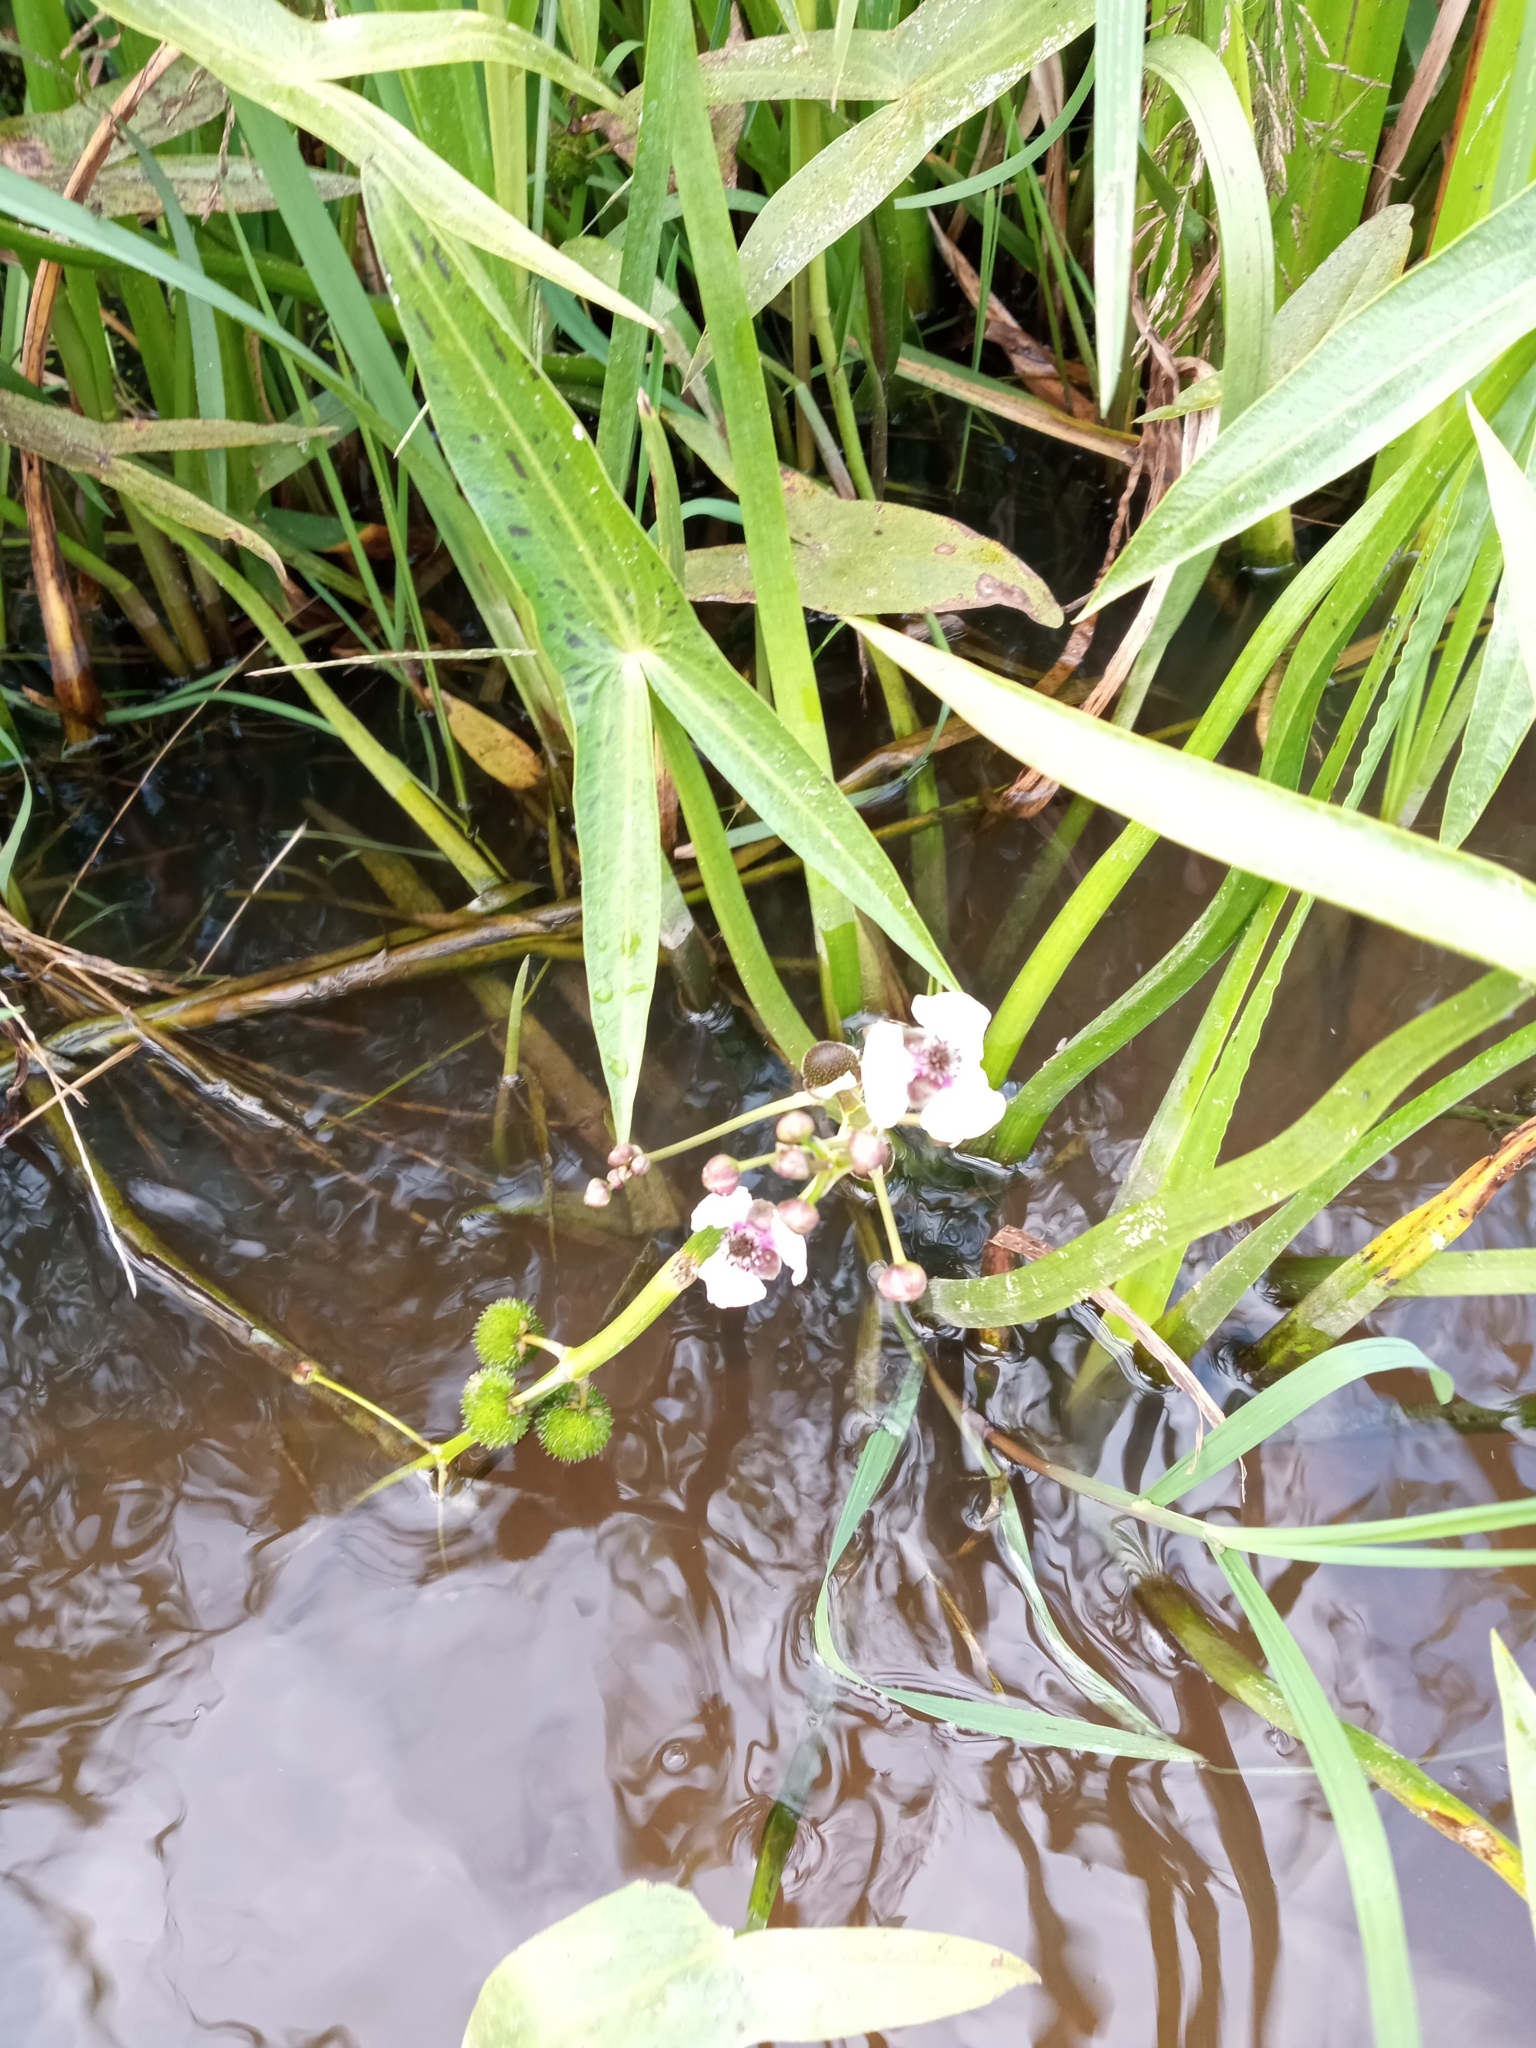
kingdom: Plantae
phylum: Tracheophyta
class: Liliopsida
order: Alismatales
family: Alismataceae
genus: Sagittaria
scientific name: Sagittaria sagittifolia
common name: Arrowhead
